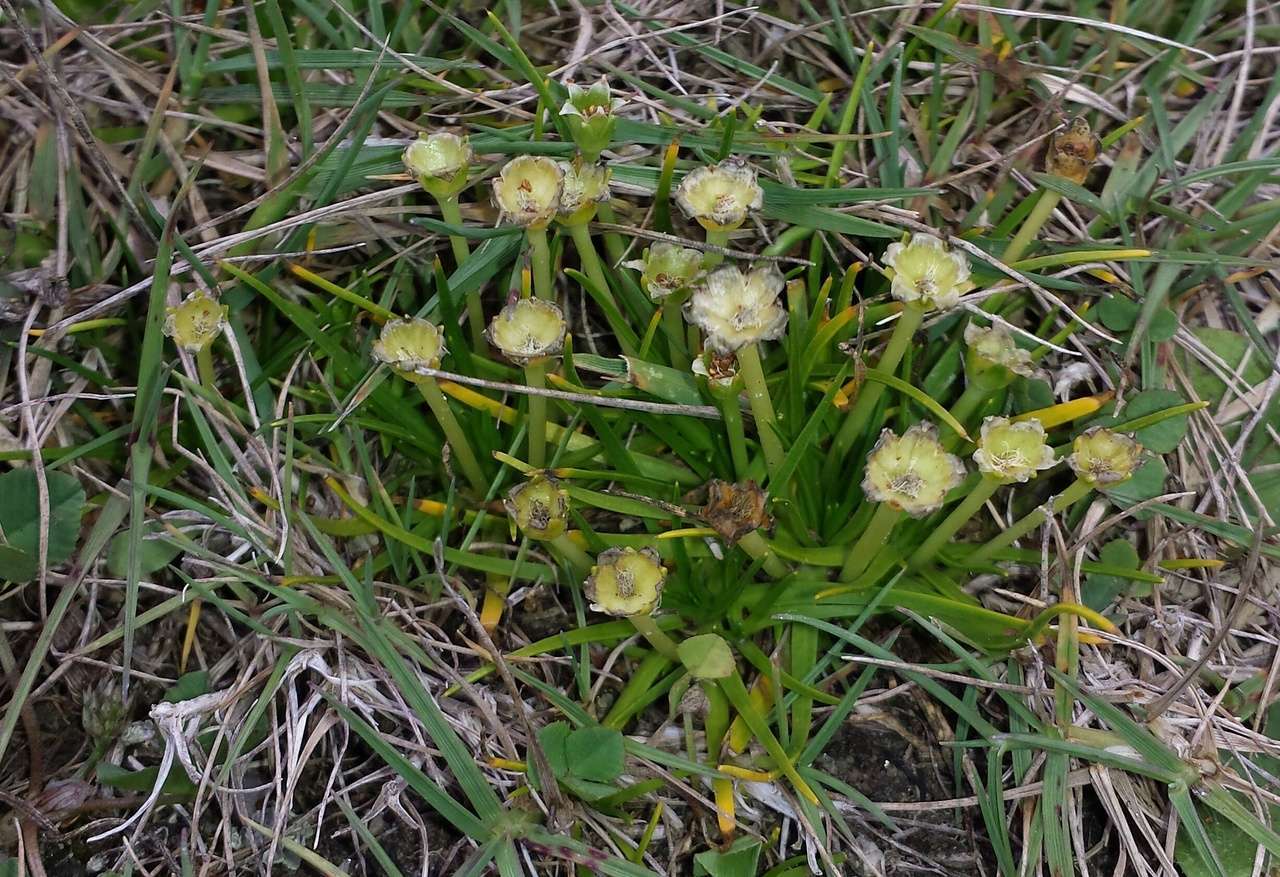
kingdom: Plantae
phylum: Tracheophyta
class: Magnoliopsida
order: Caryophyllales
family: Caryophyllaceae
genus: Colobanthus
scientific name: Colobanthus affinis
